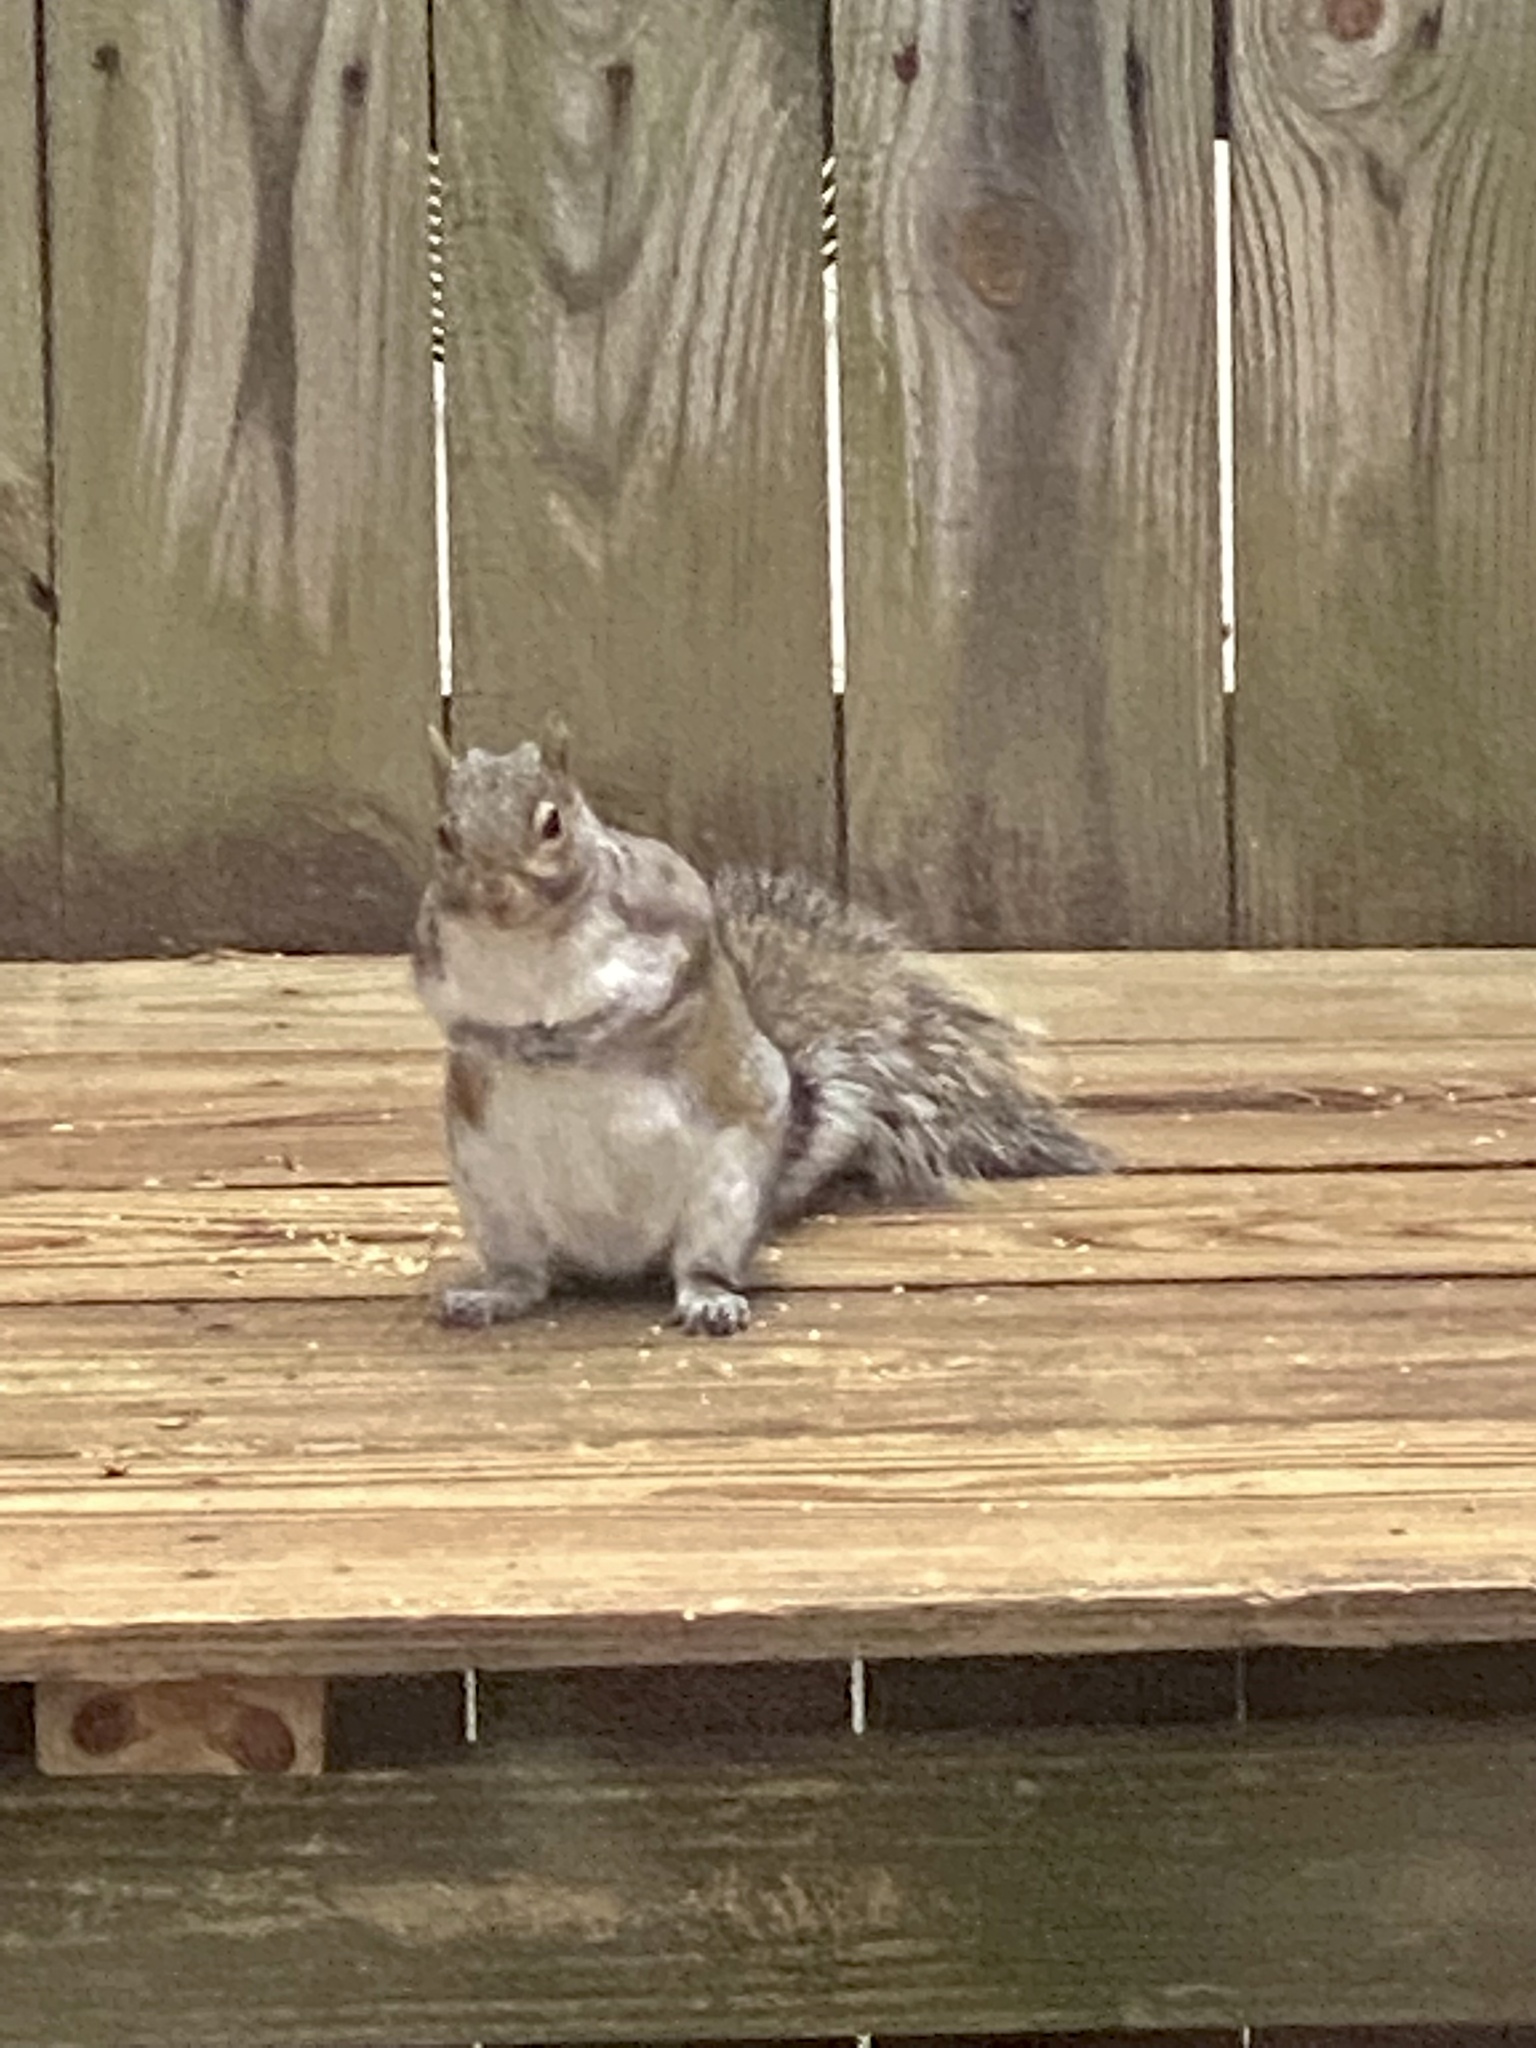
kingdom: Animalia
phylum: Chordata
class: Mammalia
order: Rodentia
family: Sciuridae
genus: Sciurus
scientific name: Sciurus carolinensis
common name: Eastern gray squirrel
